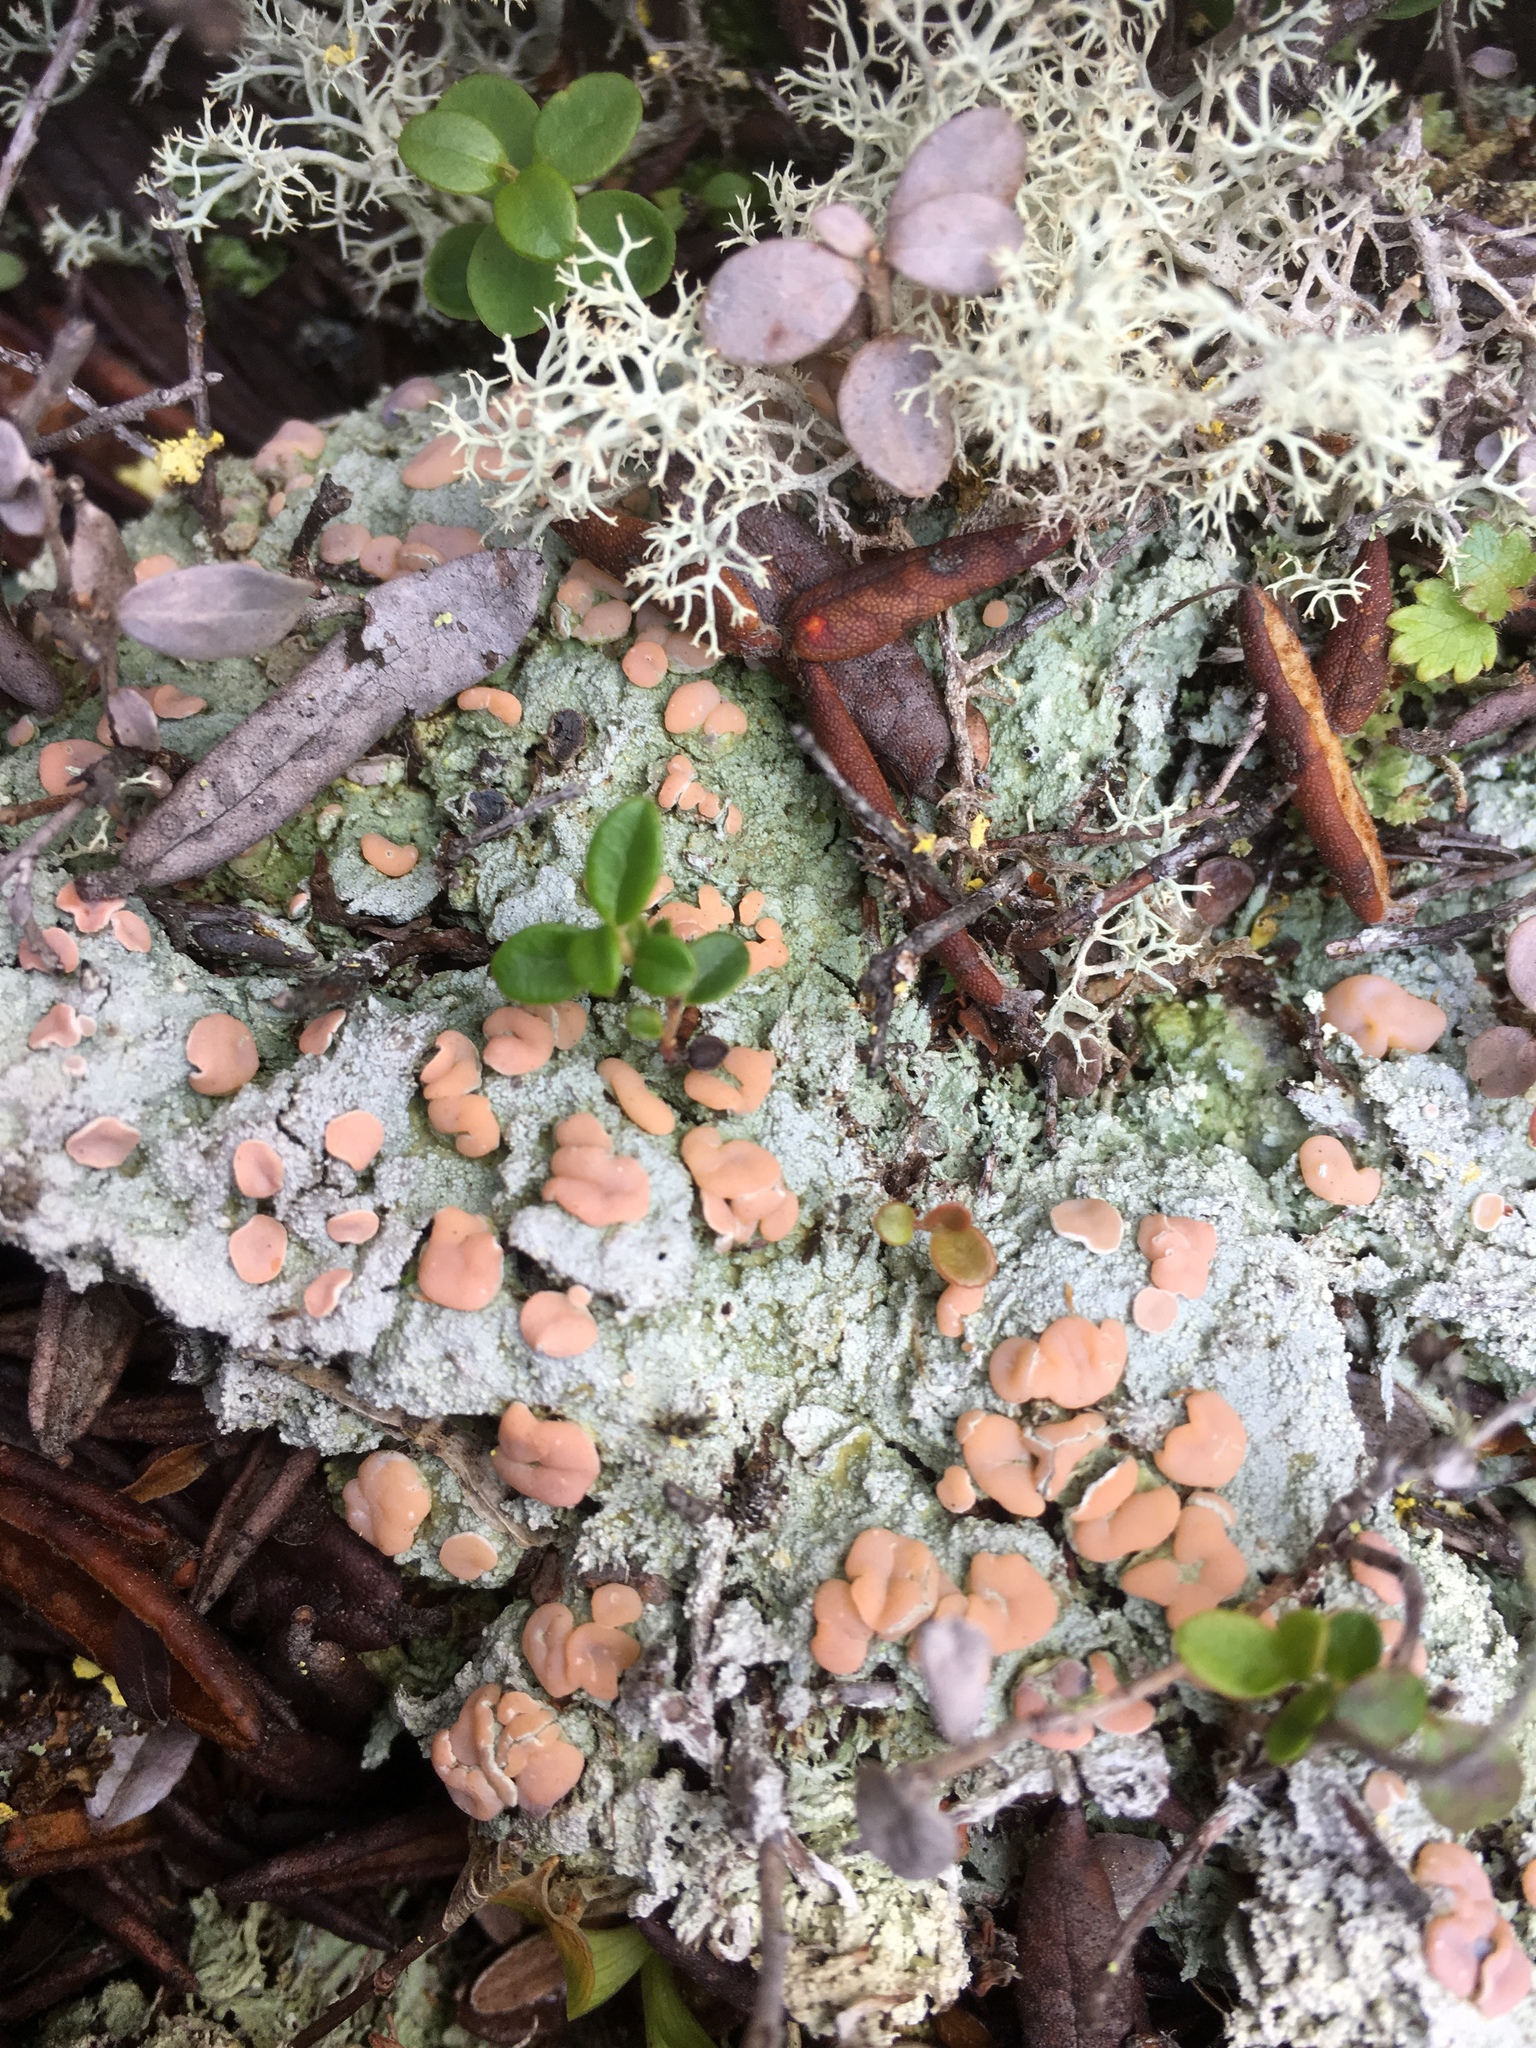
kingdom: Fungi
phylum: Ascomycota
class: Lecanoromycetes
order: Pertusariales
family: Icmadophilaceae
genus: Icmadophila
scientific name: Icmadophila ericetorum
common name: Candy lichen
